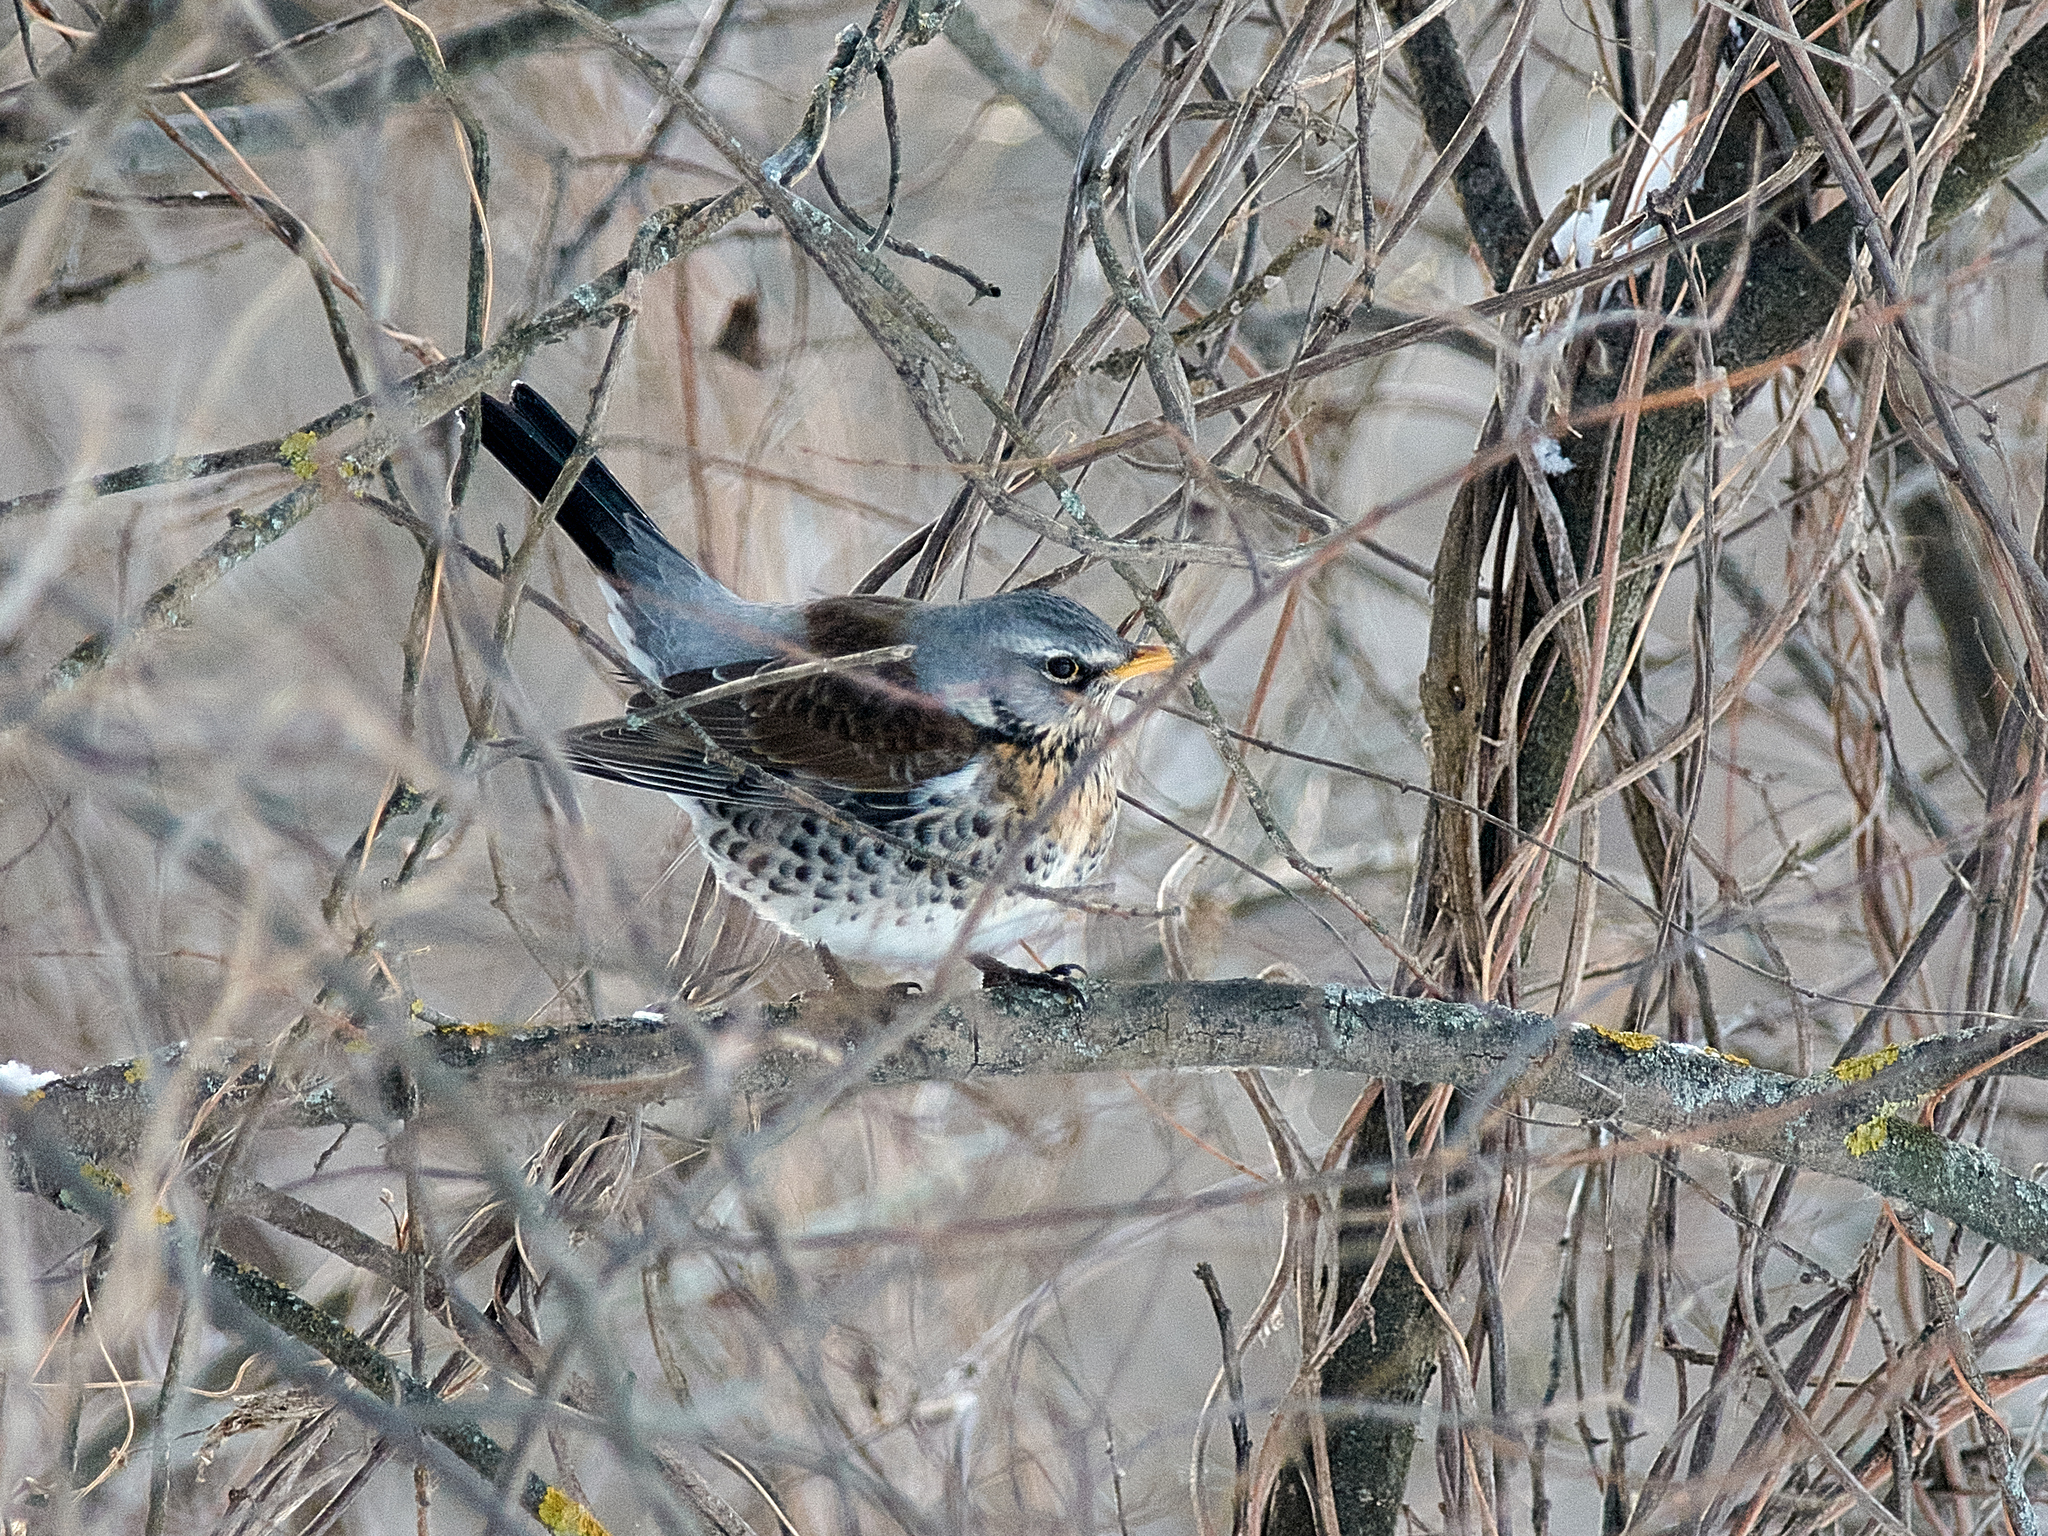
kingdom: Animalia
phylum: Chordata
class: Aves
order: Passeriformes
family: Turdidae
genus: Turdus
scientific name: Turdus pilaris
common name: Fieldfare
